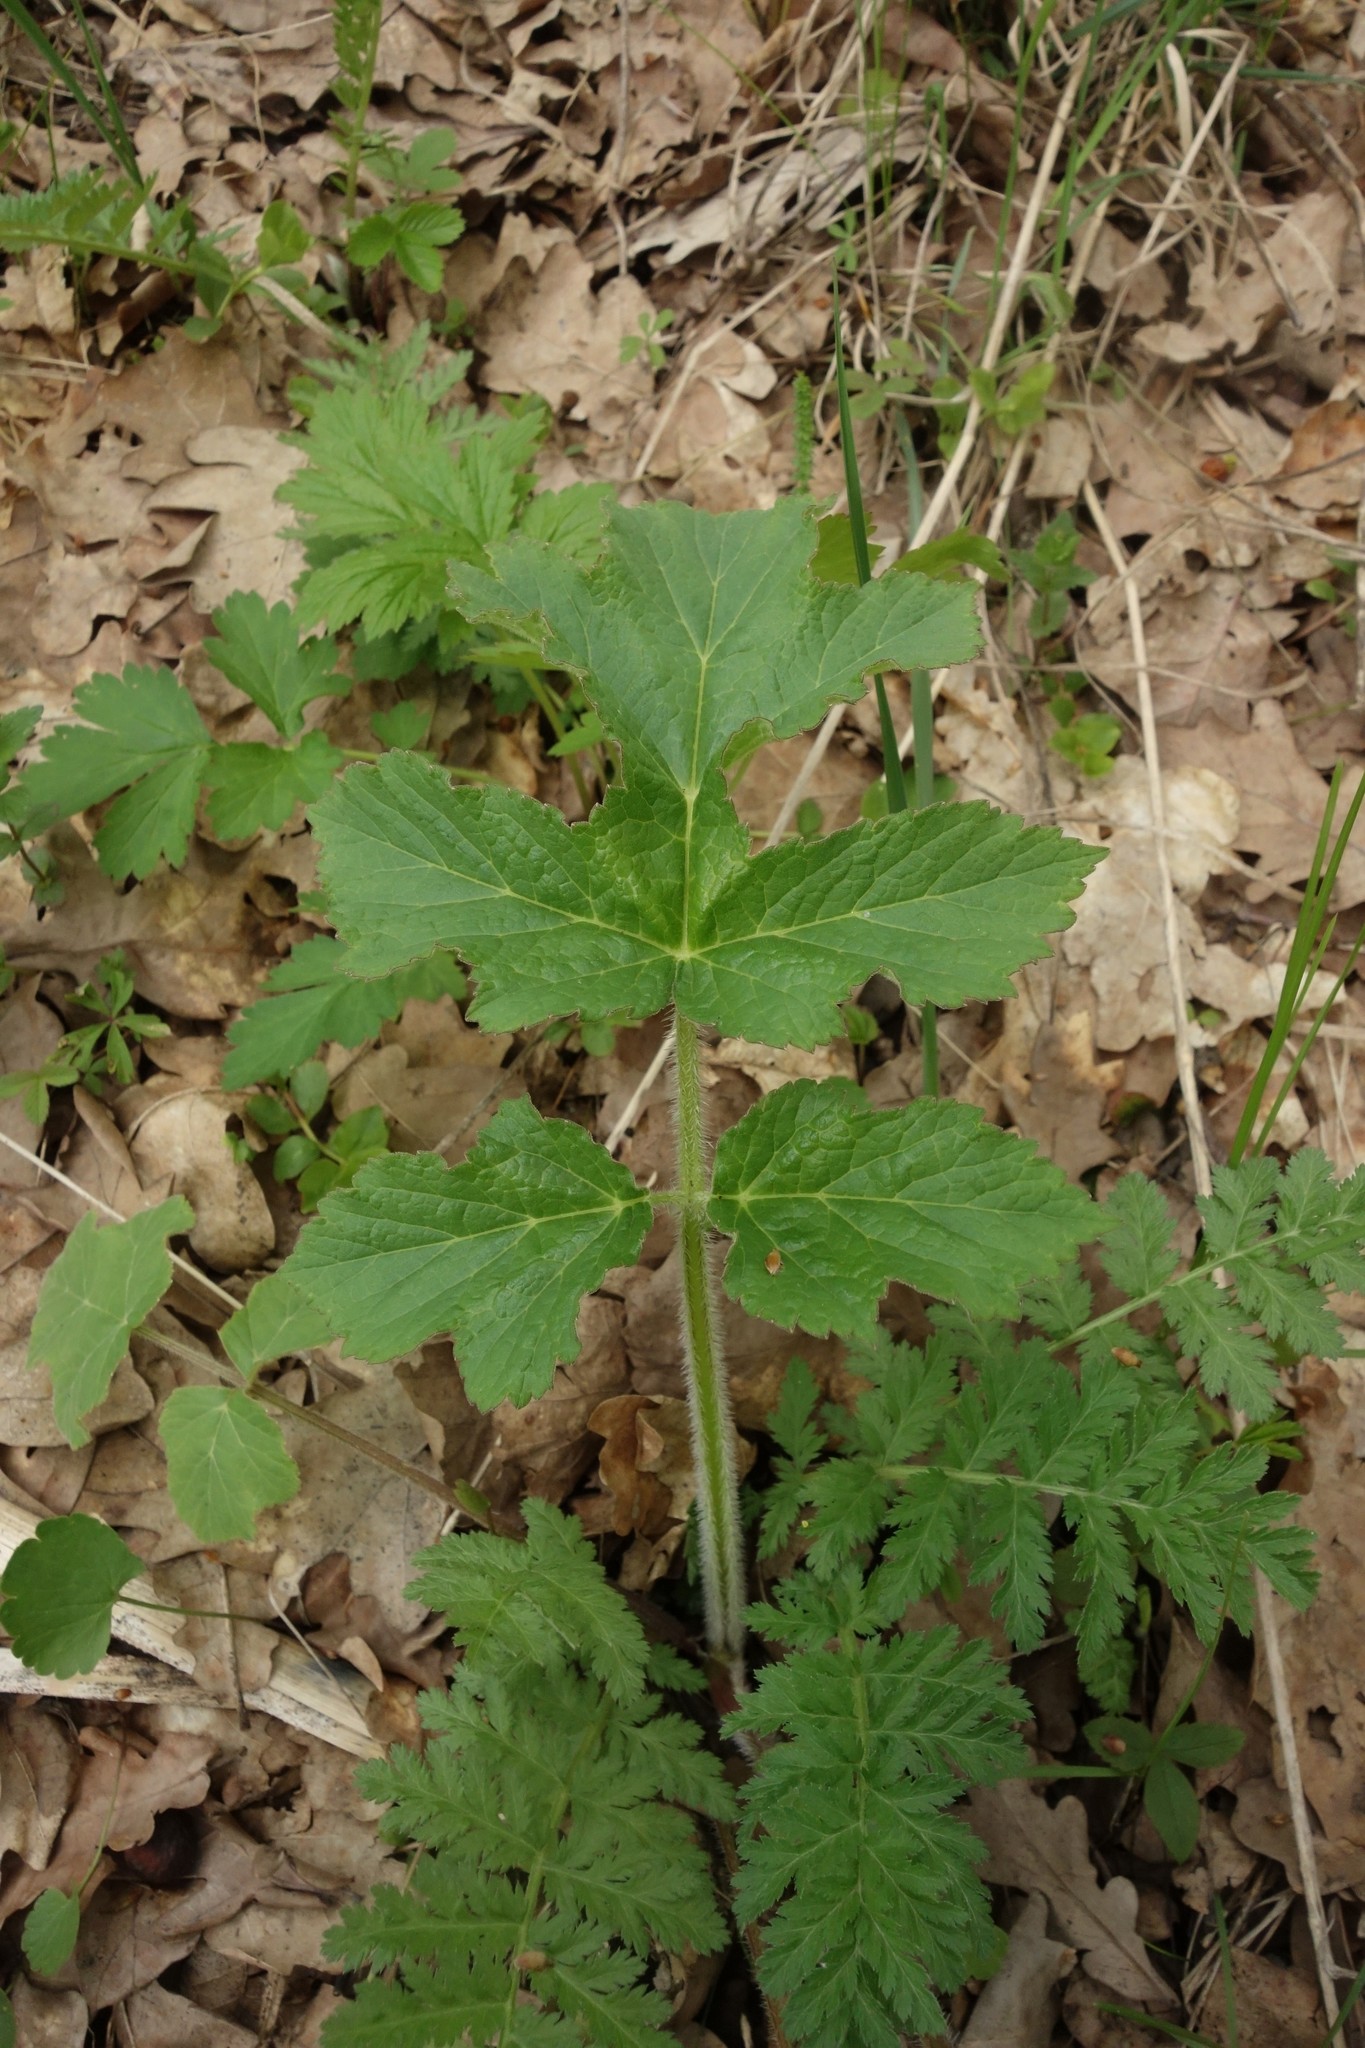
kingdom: Plantae
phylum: Tracheophyta
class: Magnoliopsida
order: Apiales
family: Apiaceae
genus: Heracleum
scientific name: Heracleum sphondylium
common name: Hogweed
